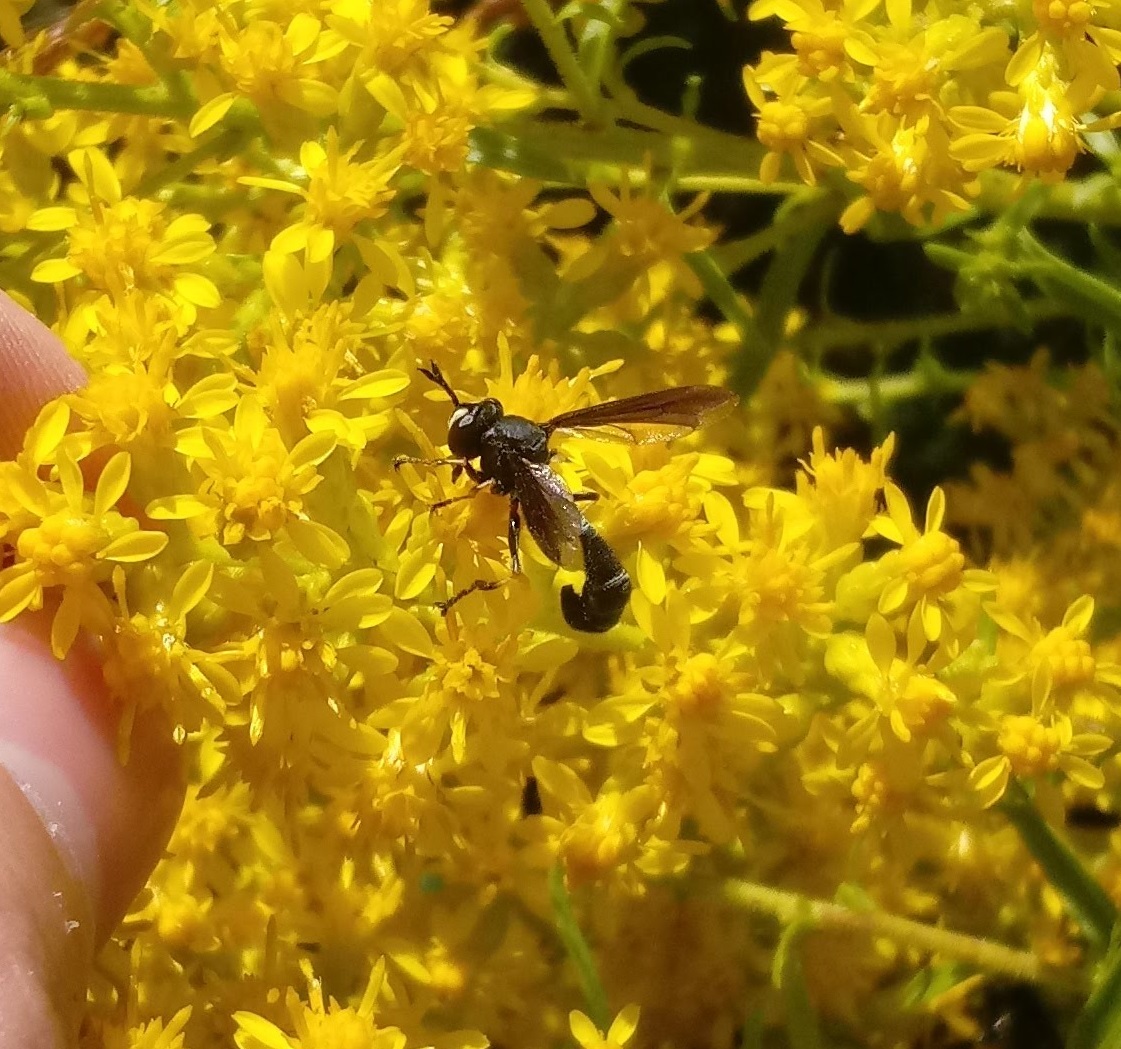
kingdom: Animalia
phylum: Arthropoda
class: Insecta
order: Diptera
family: Conopidae
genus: Physocephala
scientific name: Physocephala tibialis
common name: Common eastern physocephala
